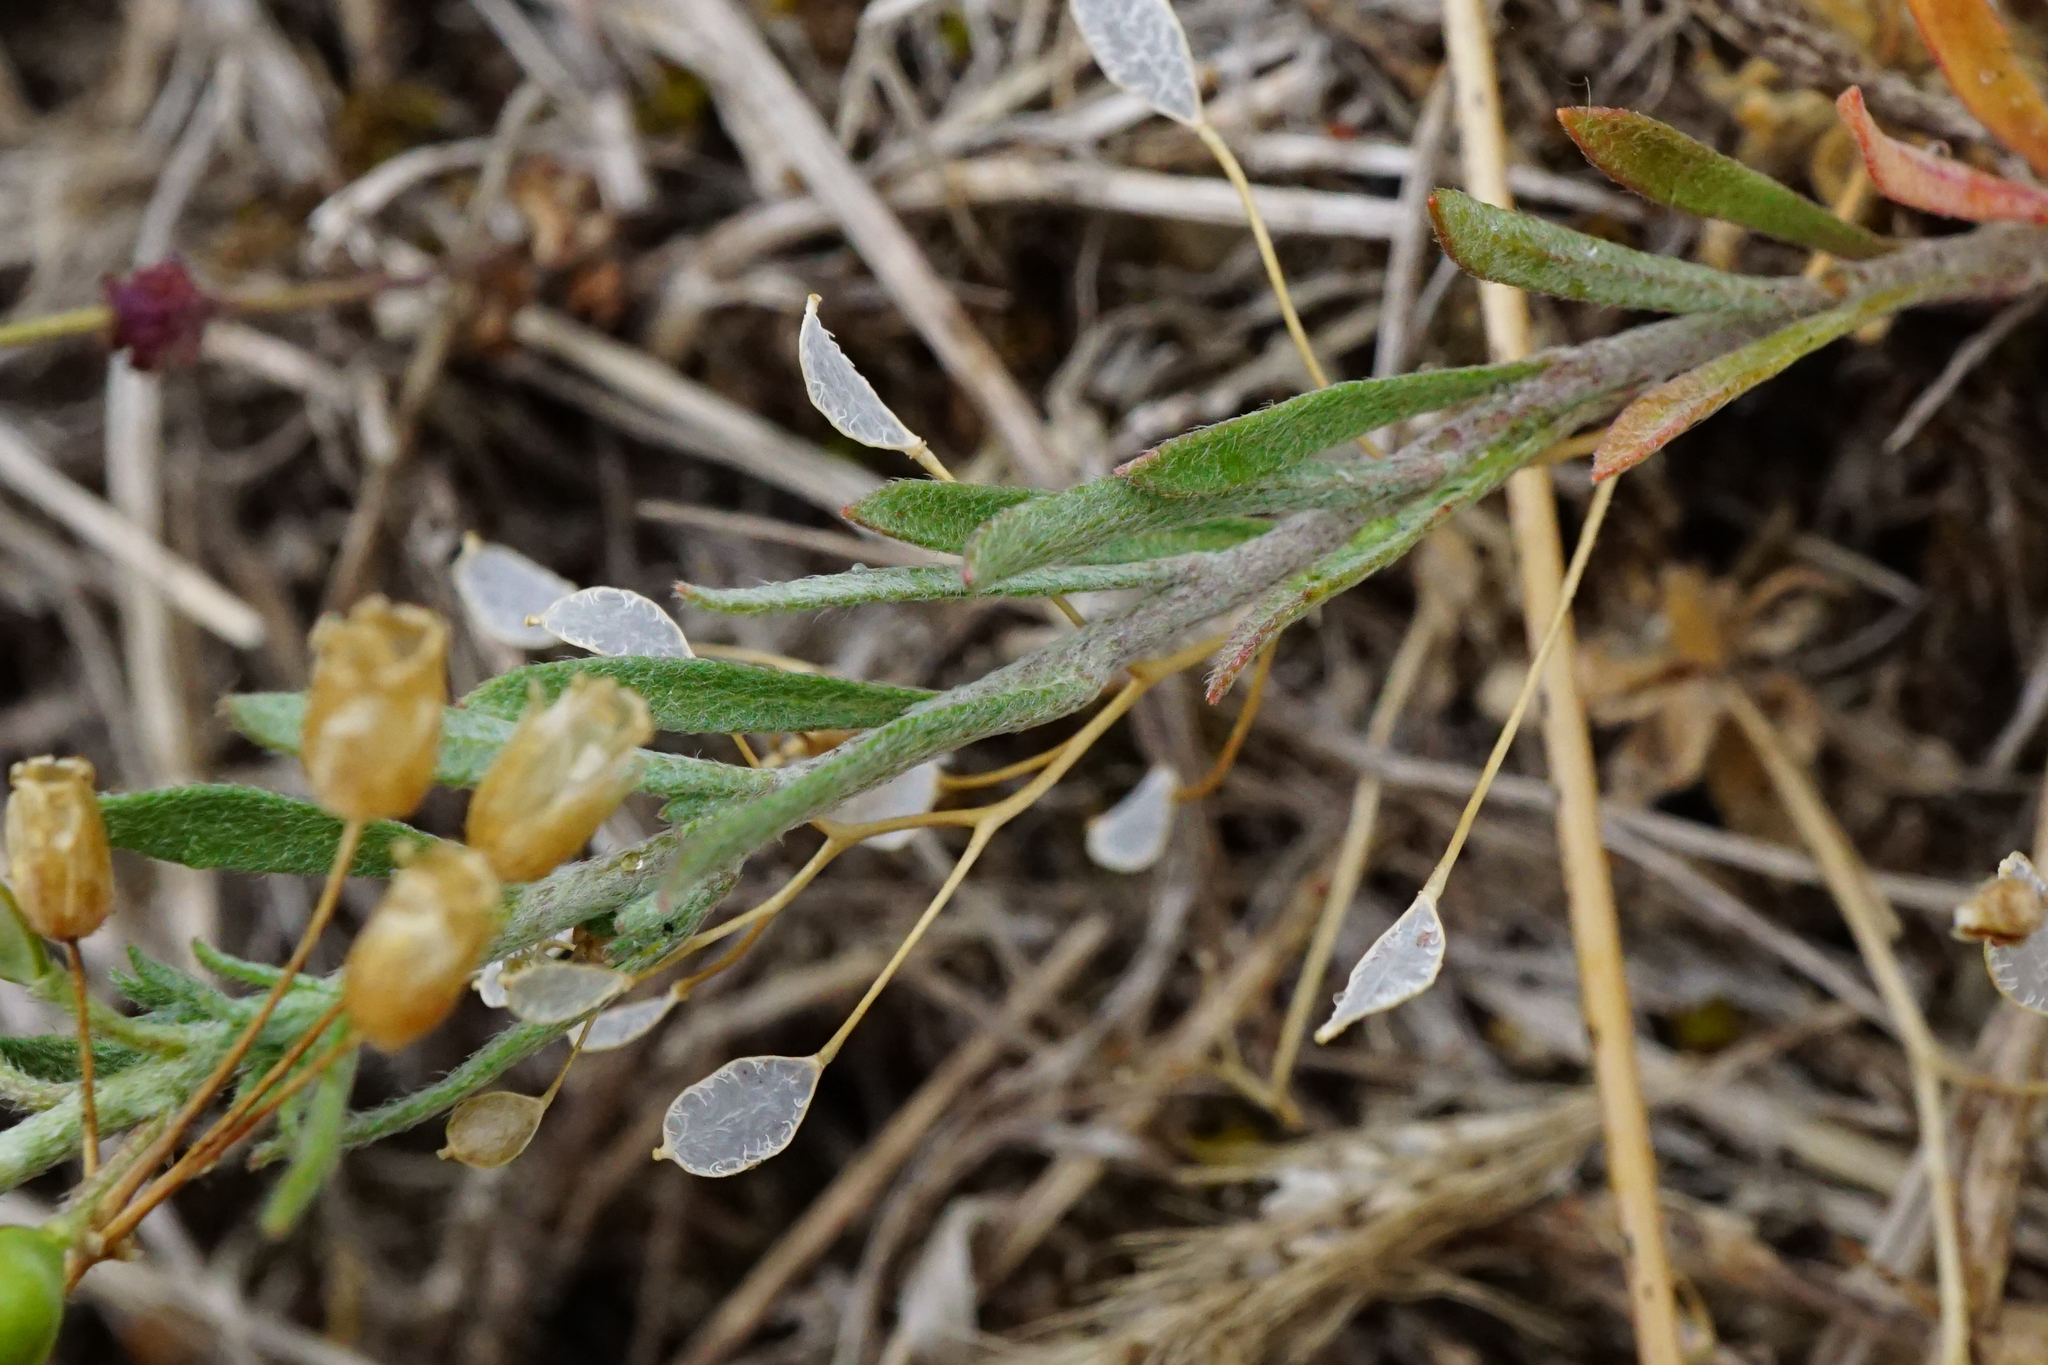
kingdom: Plantae
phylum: Tracheophyta
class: Magnoliopsida
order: Brassicales
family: Brassicaceae
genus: Alyssum
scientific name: Alyssum turkestanicum
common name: Desert alyssum
